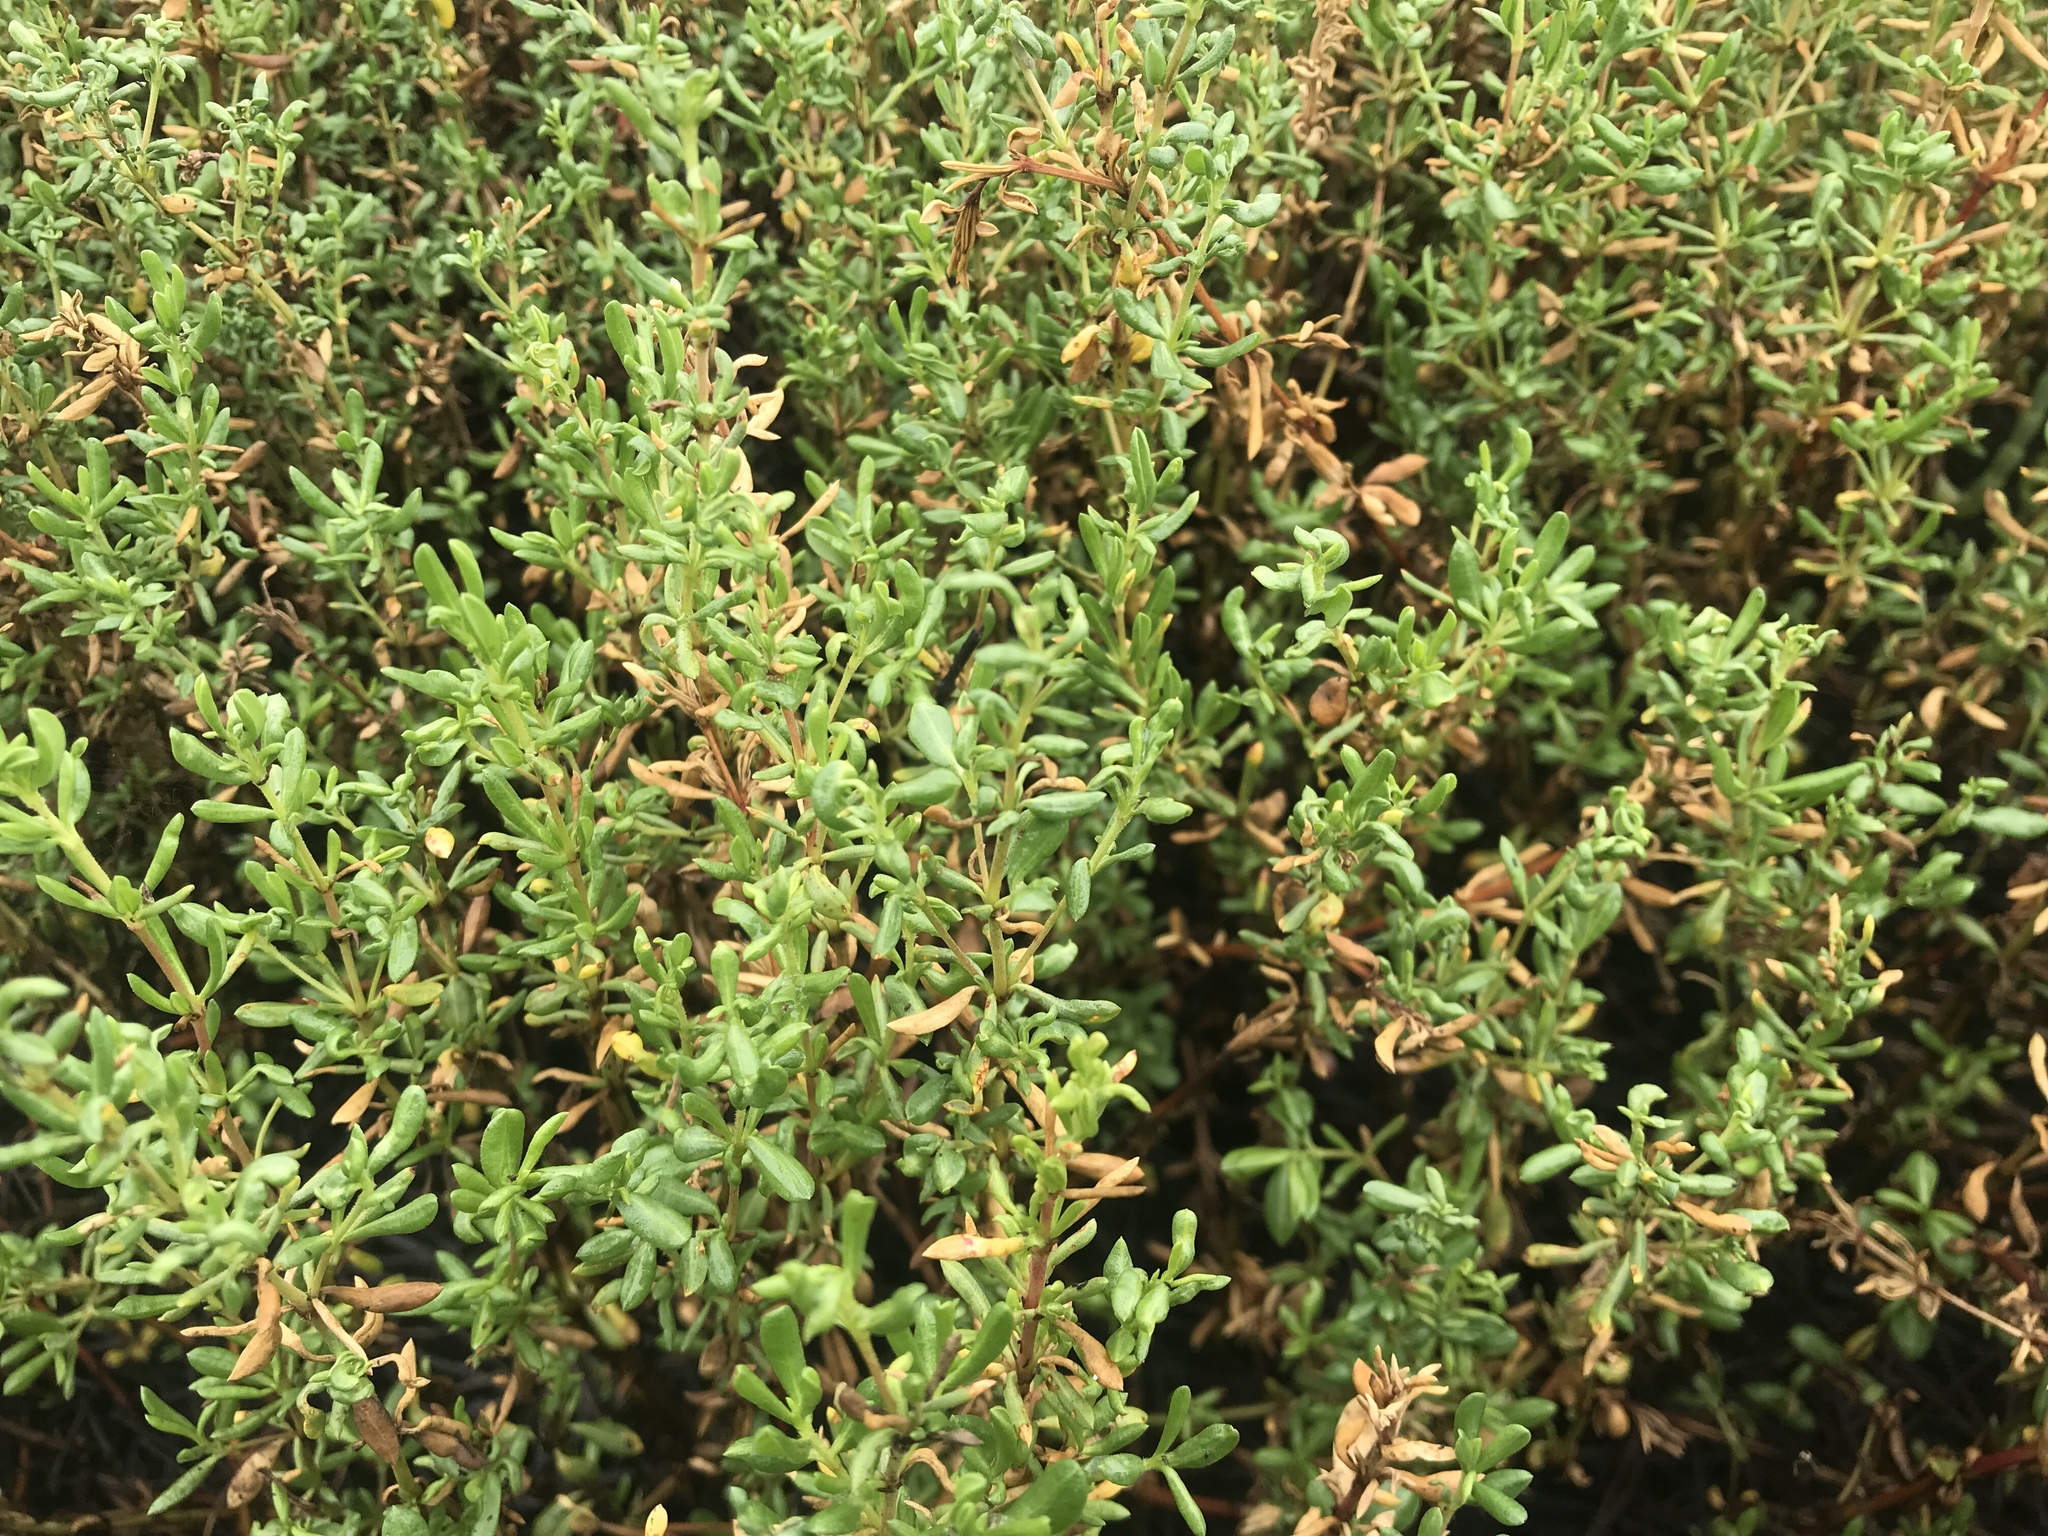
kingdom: Plantae
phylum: Tracheophyta
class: Magnoliopsida
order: Caryophyllales
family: Frankeniaceae
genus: Frankenia
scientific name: Frankenia salina
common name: Alkali seaheath
